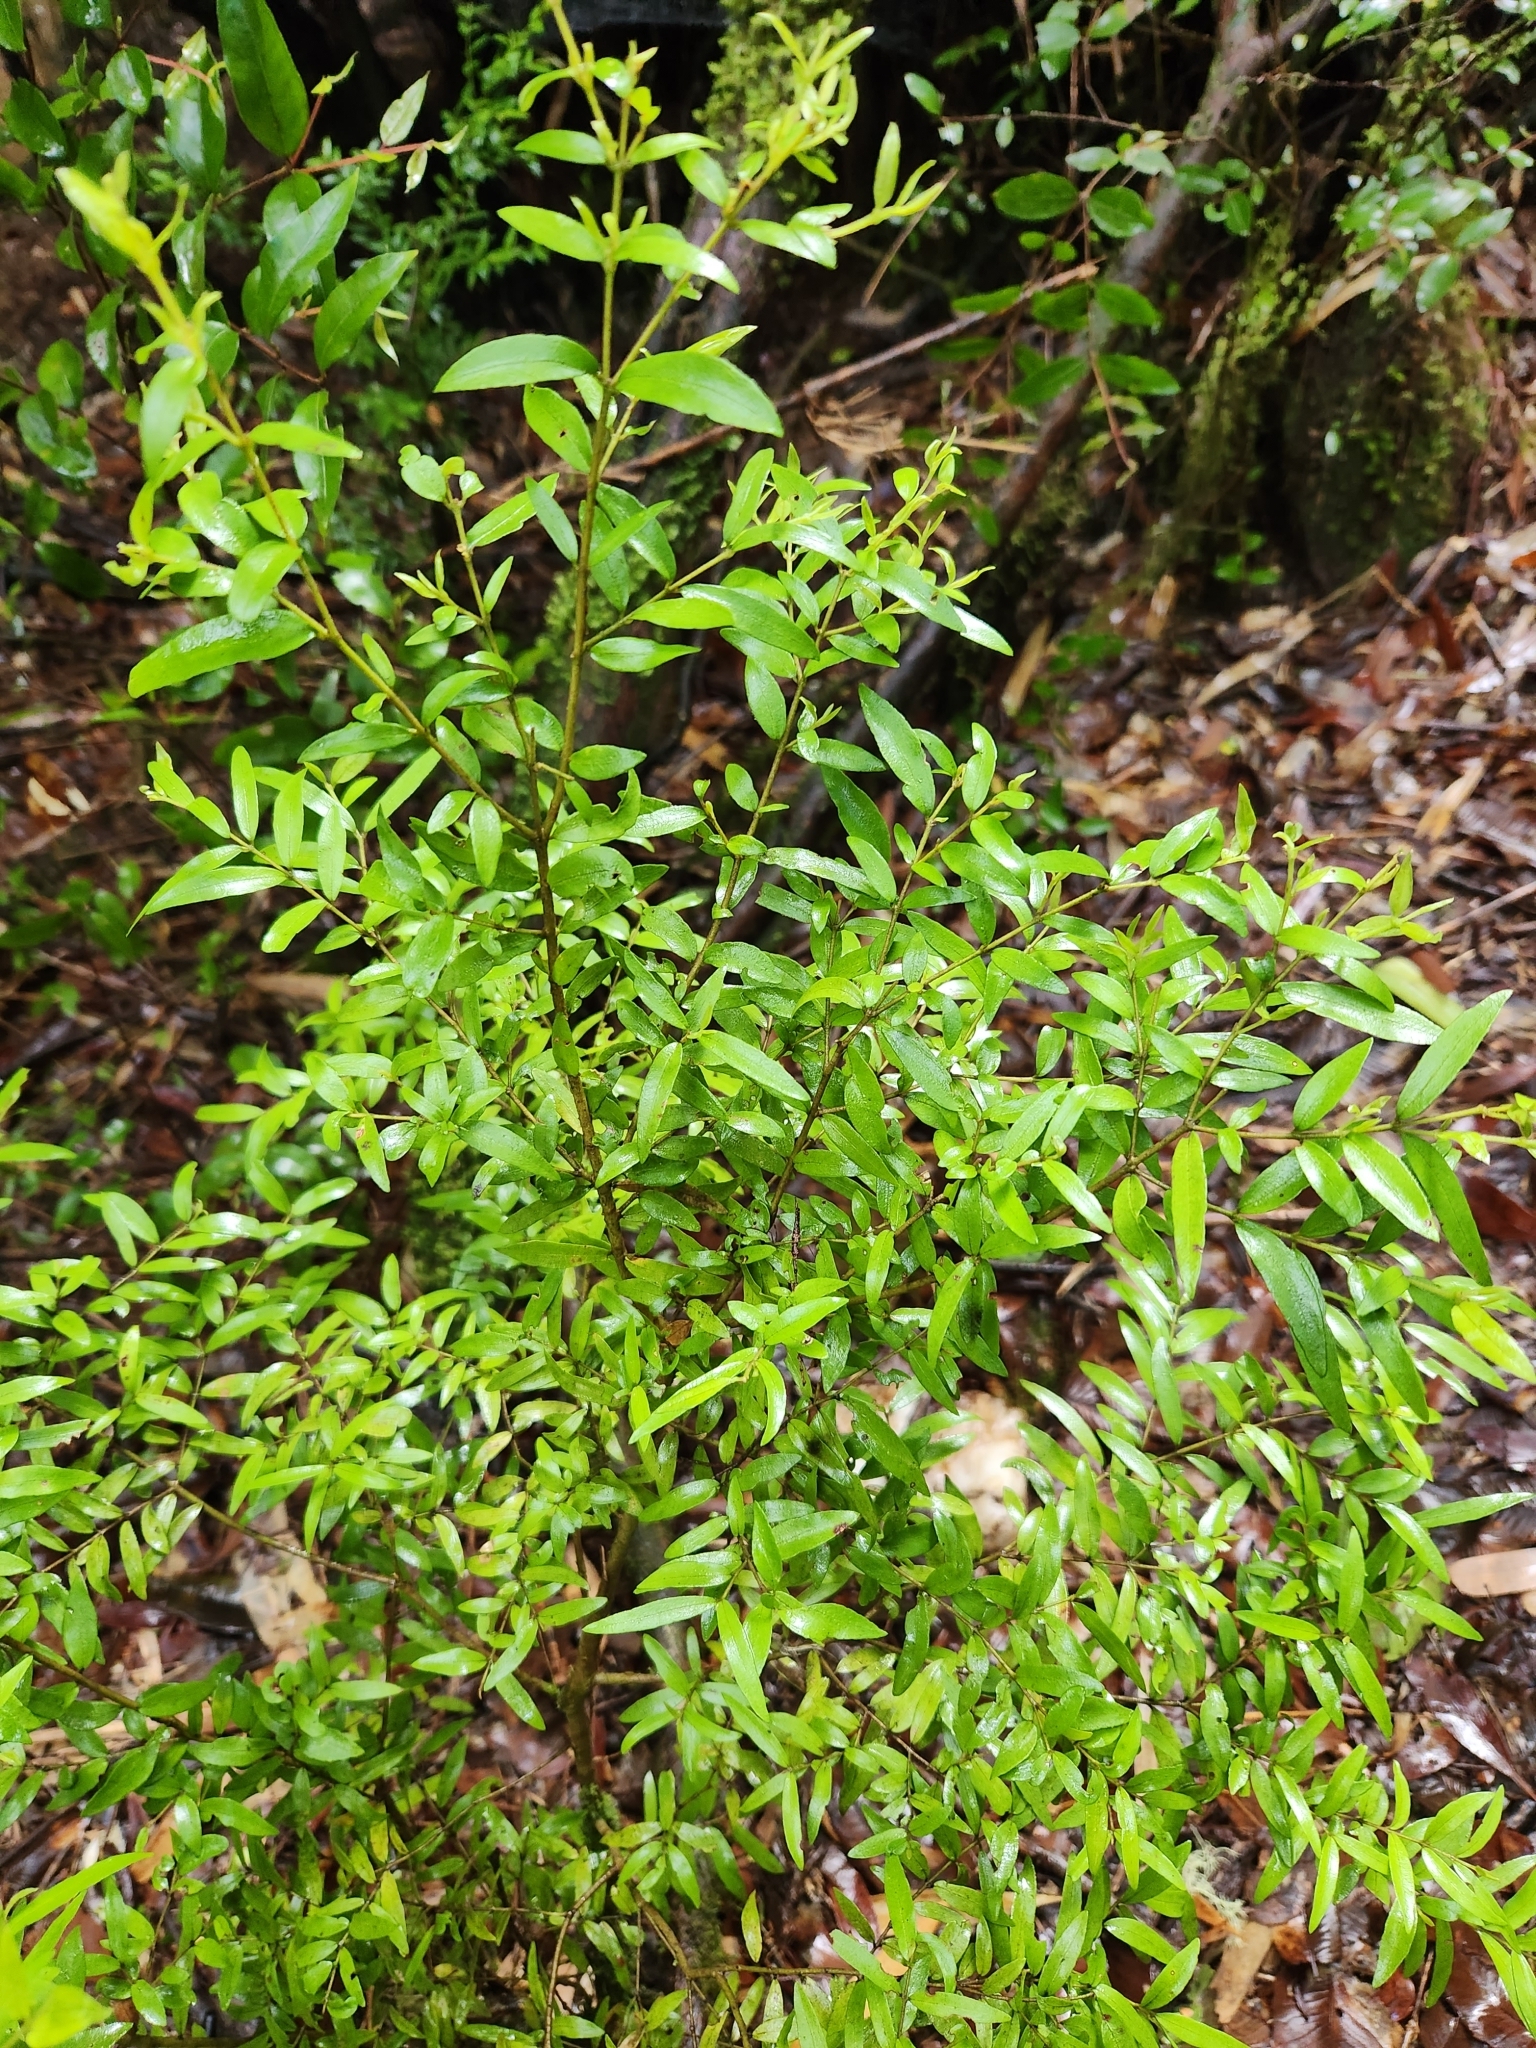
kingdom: Plantae
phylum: Tracheophyta
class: Magnoliopsida
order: Myrtales
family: Myrtaceae
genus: Myrceugenia
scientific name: Myrceugenia parvifolia
